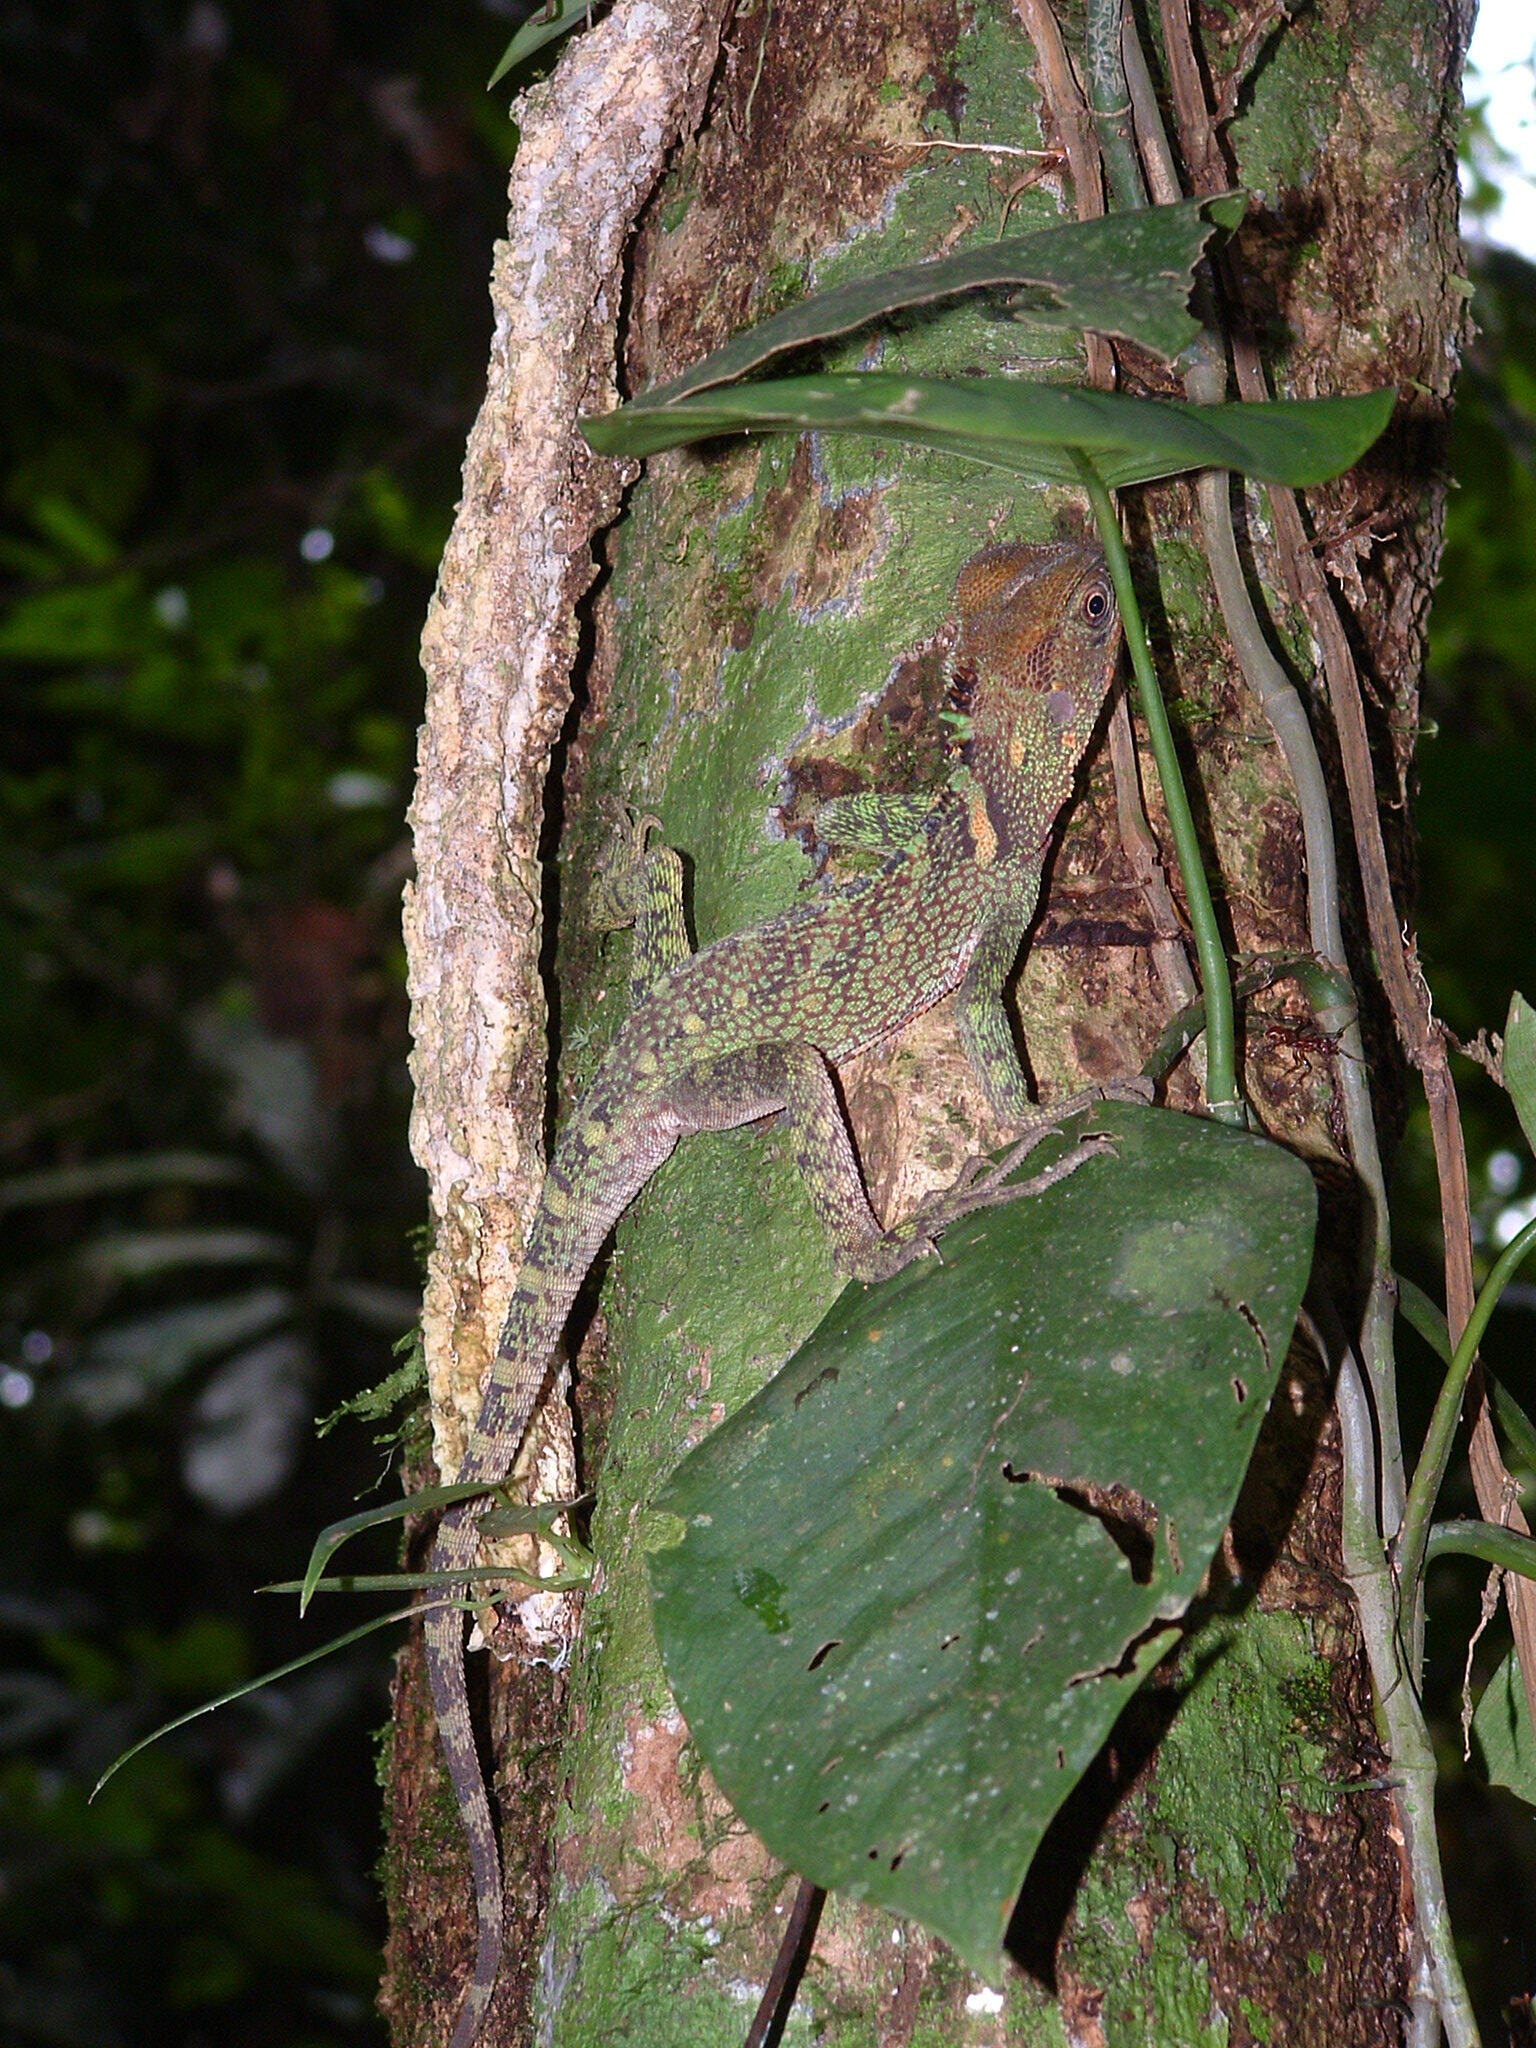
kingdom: Animalia
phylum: Chordata
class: Squamata
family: Hoplocercidae
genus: Enyalioides
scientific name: Enyalioides laticeps
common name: Guichenot's dwarf iguana
